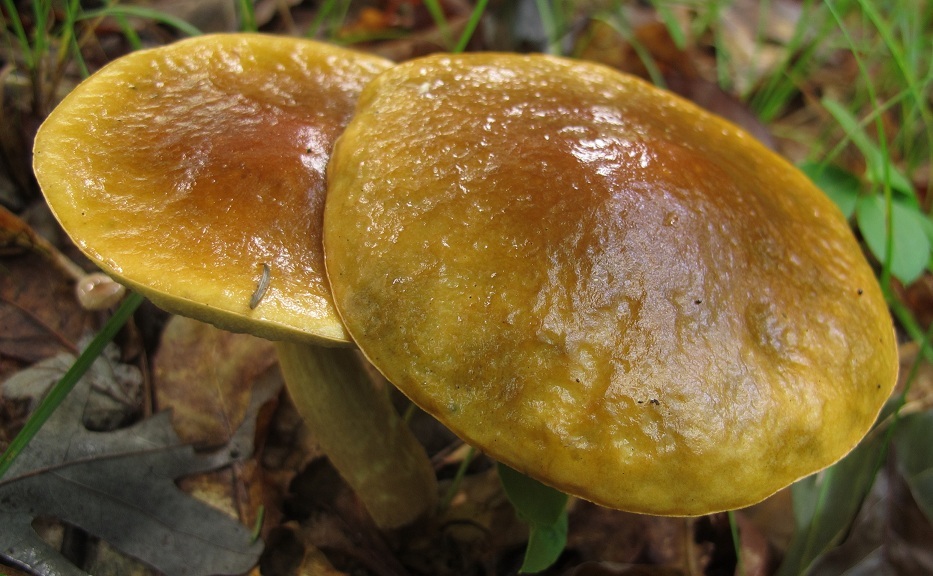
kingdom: Fungi
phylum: Basidiomycota
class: Agaricomycetes
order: Boletales
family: Boletaceae
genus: Leccinum
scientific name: Leccinum longicurvipes
